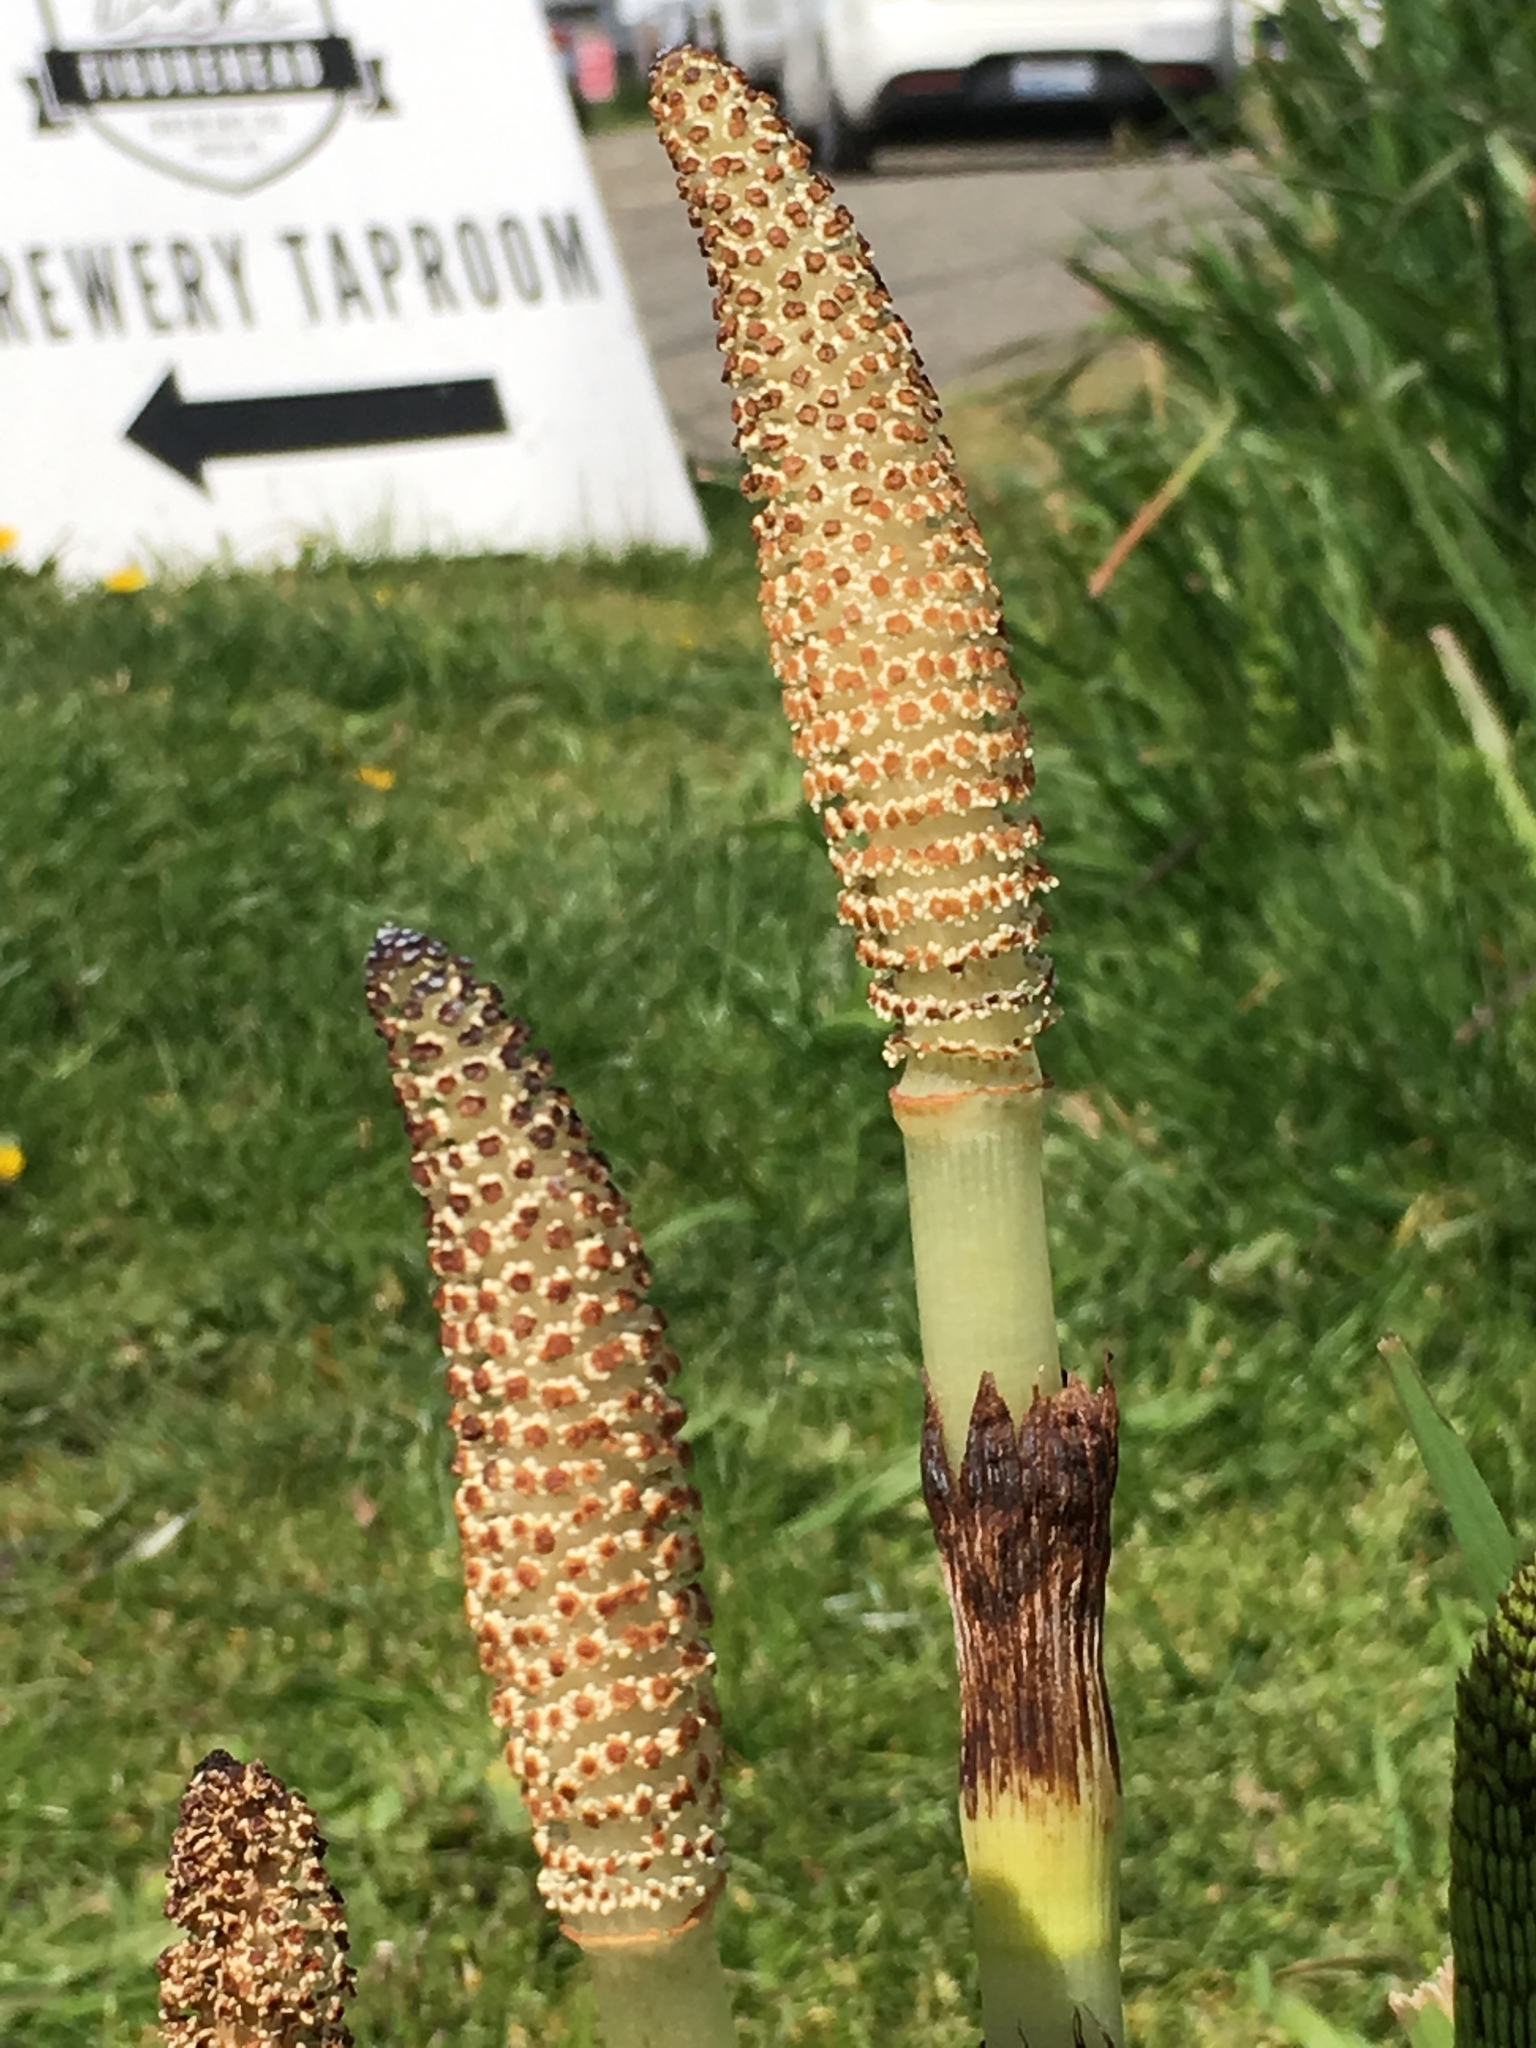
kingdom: Plantae
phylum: Tracheophyta
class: Polypodiopsida
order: Equisetales
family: Equisetaceae
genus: Equisetum
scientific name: Equisetum braunii
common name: Braun's horsetail
